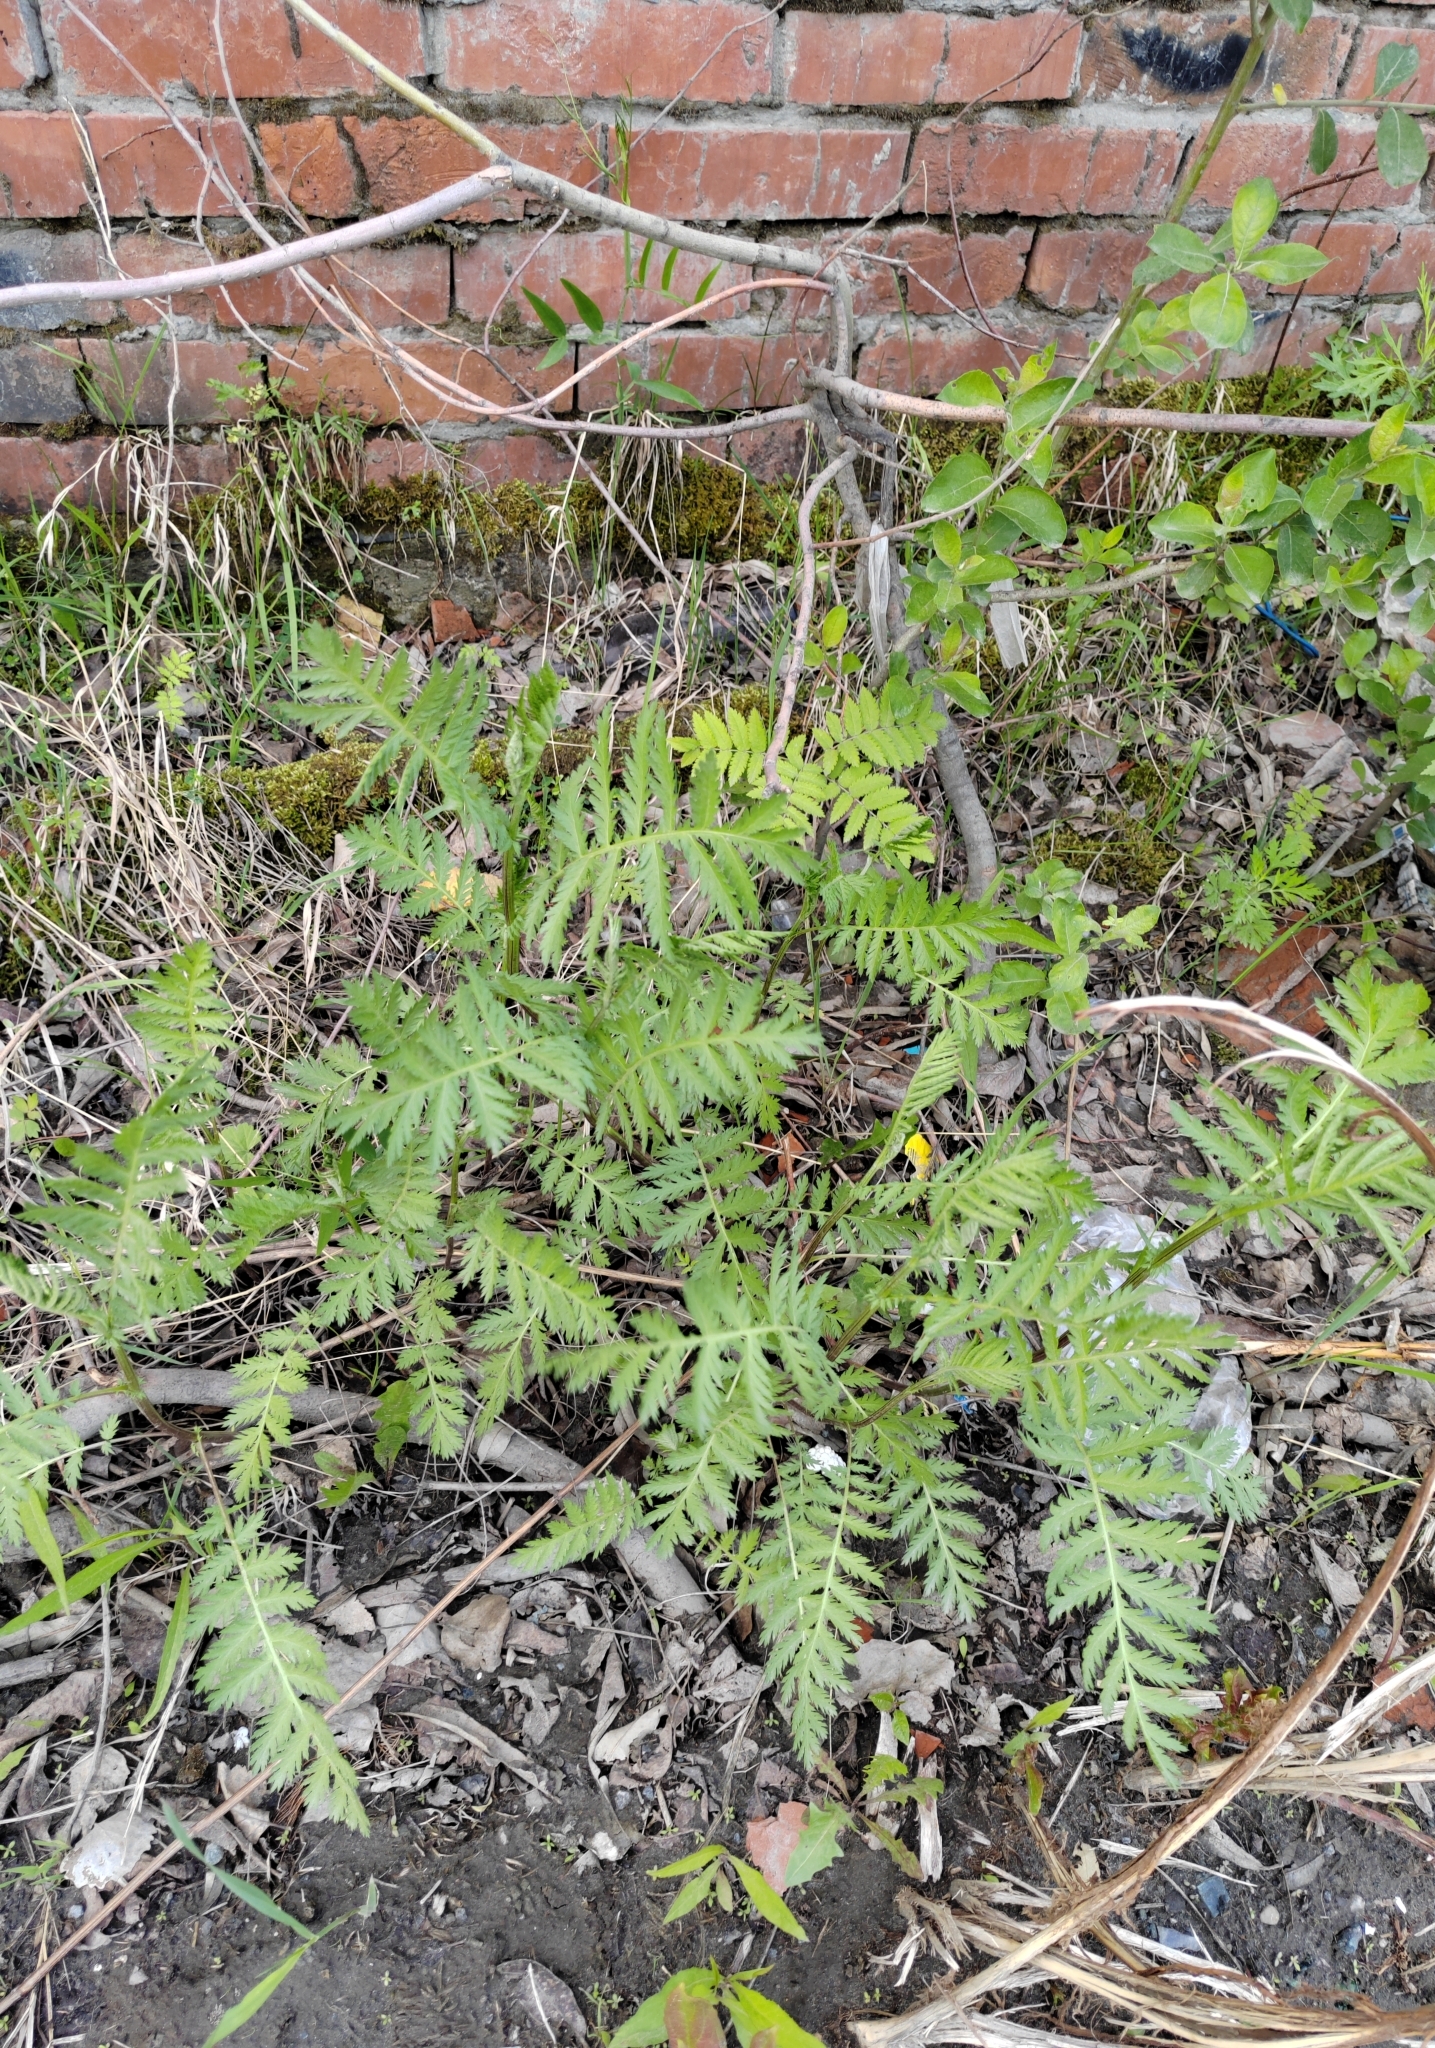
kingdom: Plantae
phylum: Tracheophyta
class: Magnoliopsida
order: Asterales
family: Asteraceae
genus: Tanacetum
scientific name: Tanacetum vulgare
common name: Common tansy
